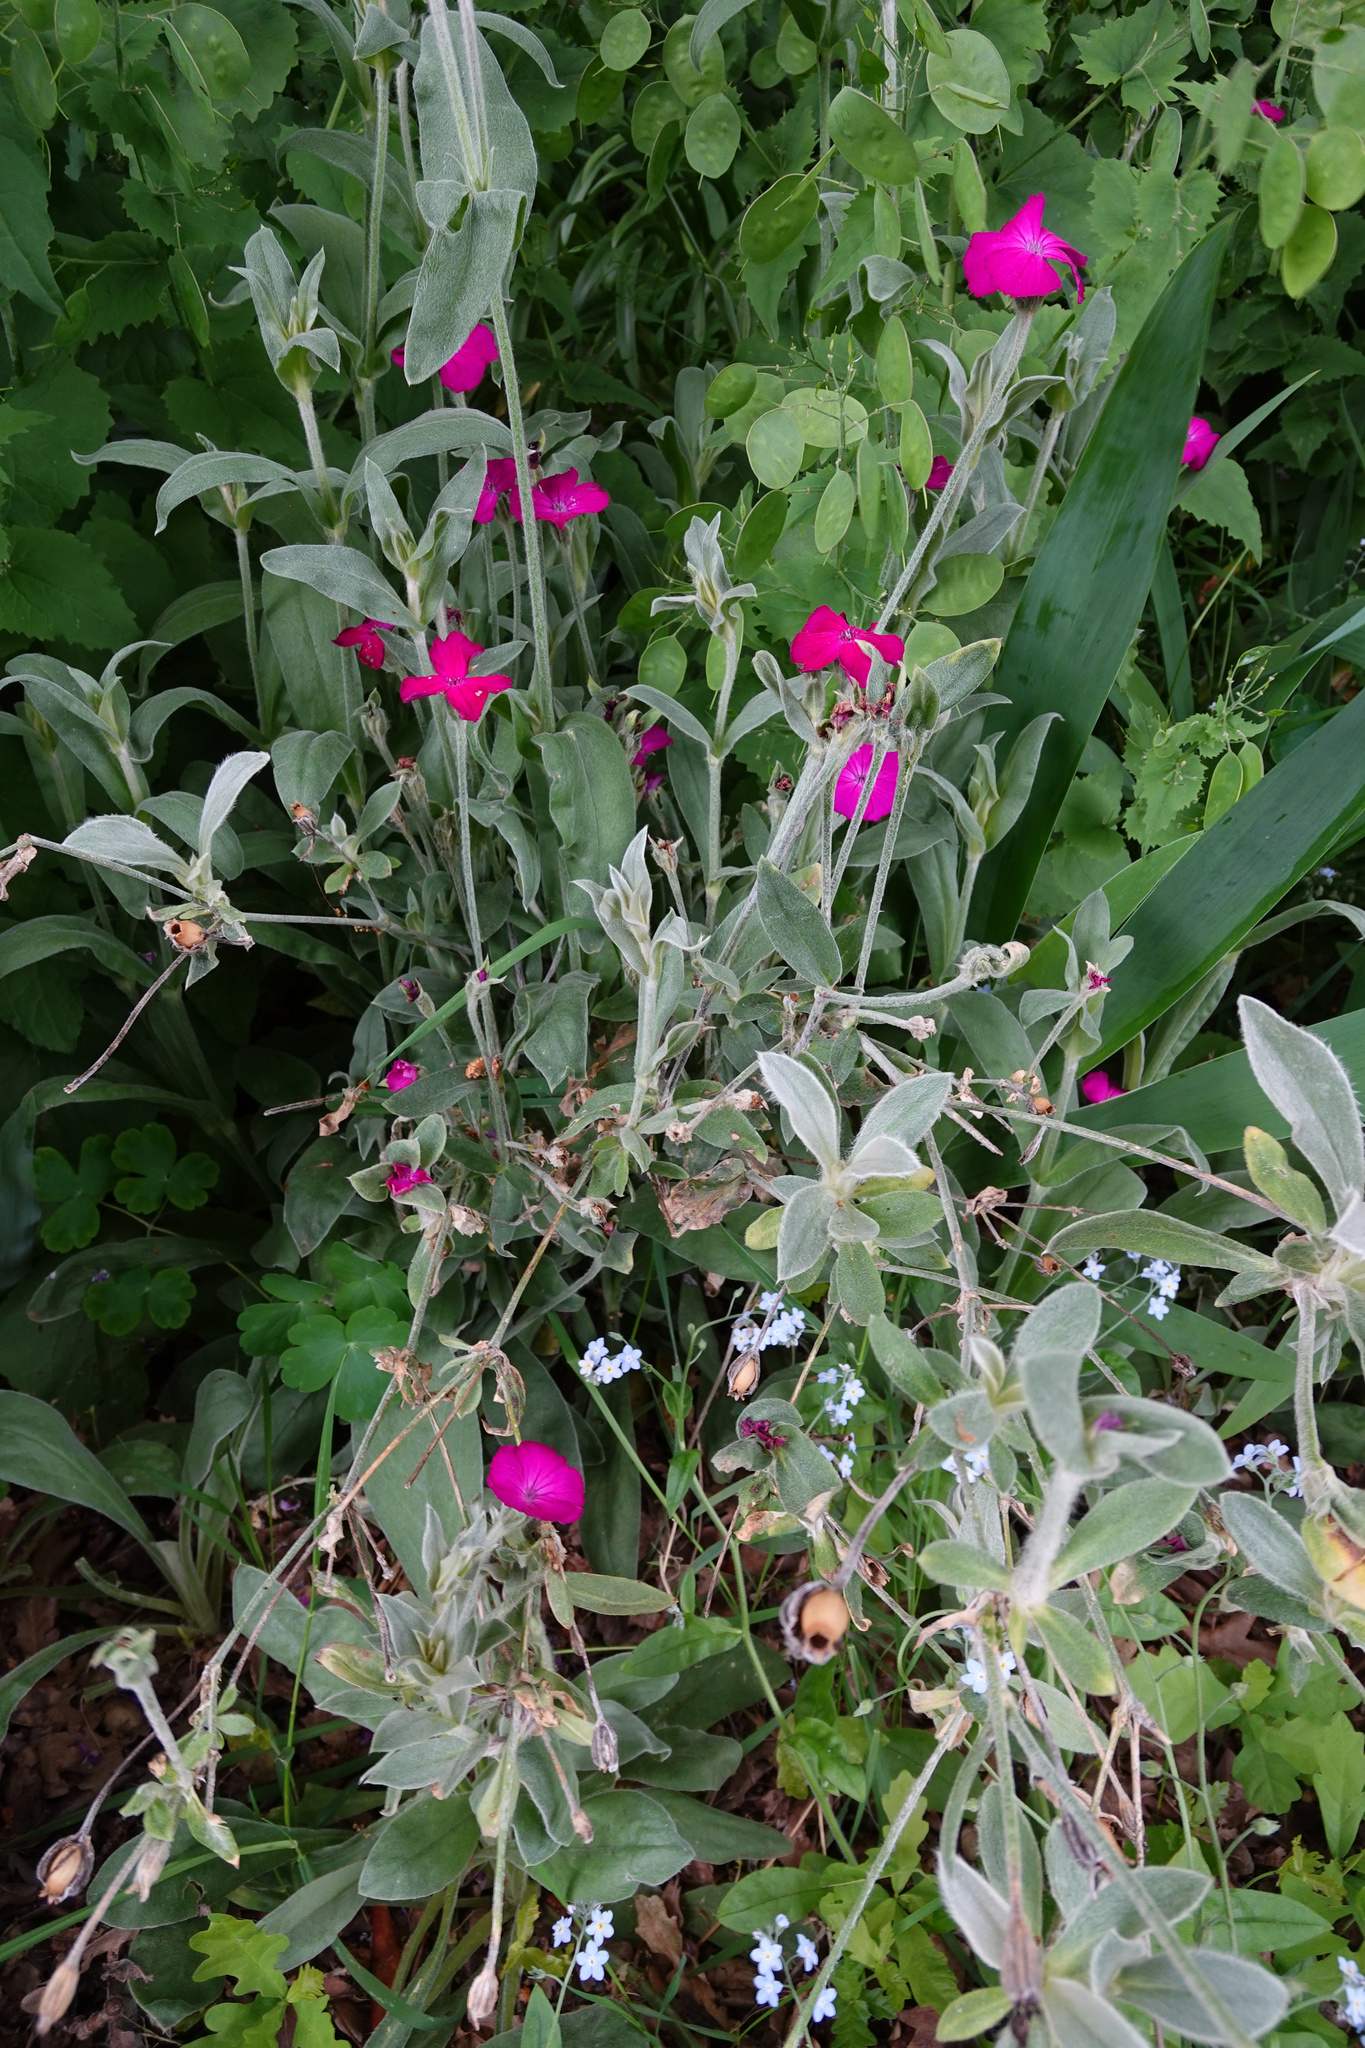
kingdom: Plantae
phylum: Tracheophyta
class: Magnoliopsida
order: Caryophyllales
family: Caryophyllaceae
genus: Silene
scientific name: Silene coronaria
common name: Rose campion
